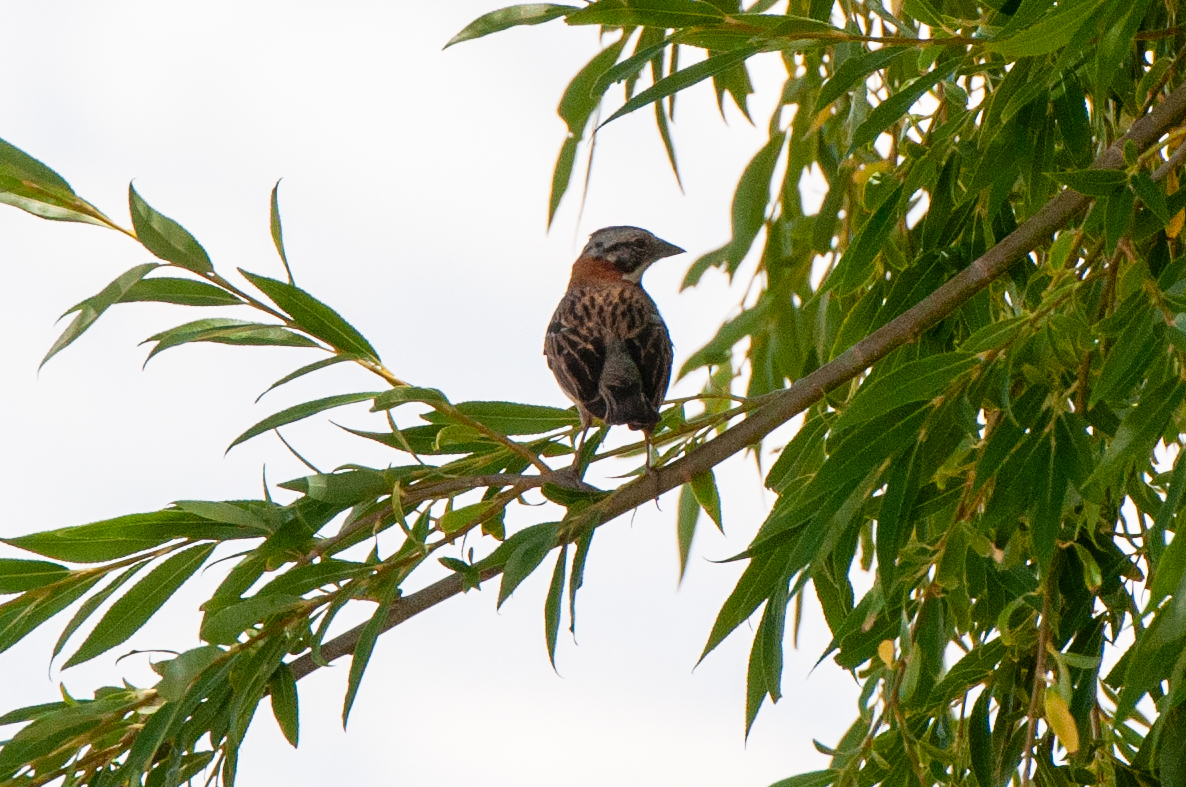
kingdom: Animalia
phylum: Chordata
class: Aves
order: Passeriformes
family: Passerellidae
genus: Zonotrichia
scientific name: Zonotrichia capensis
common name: Rufous-collared sparrow
